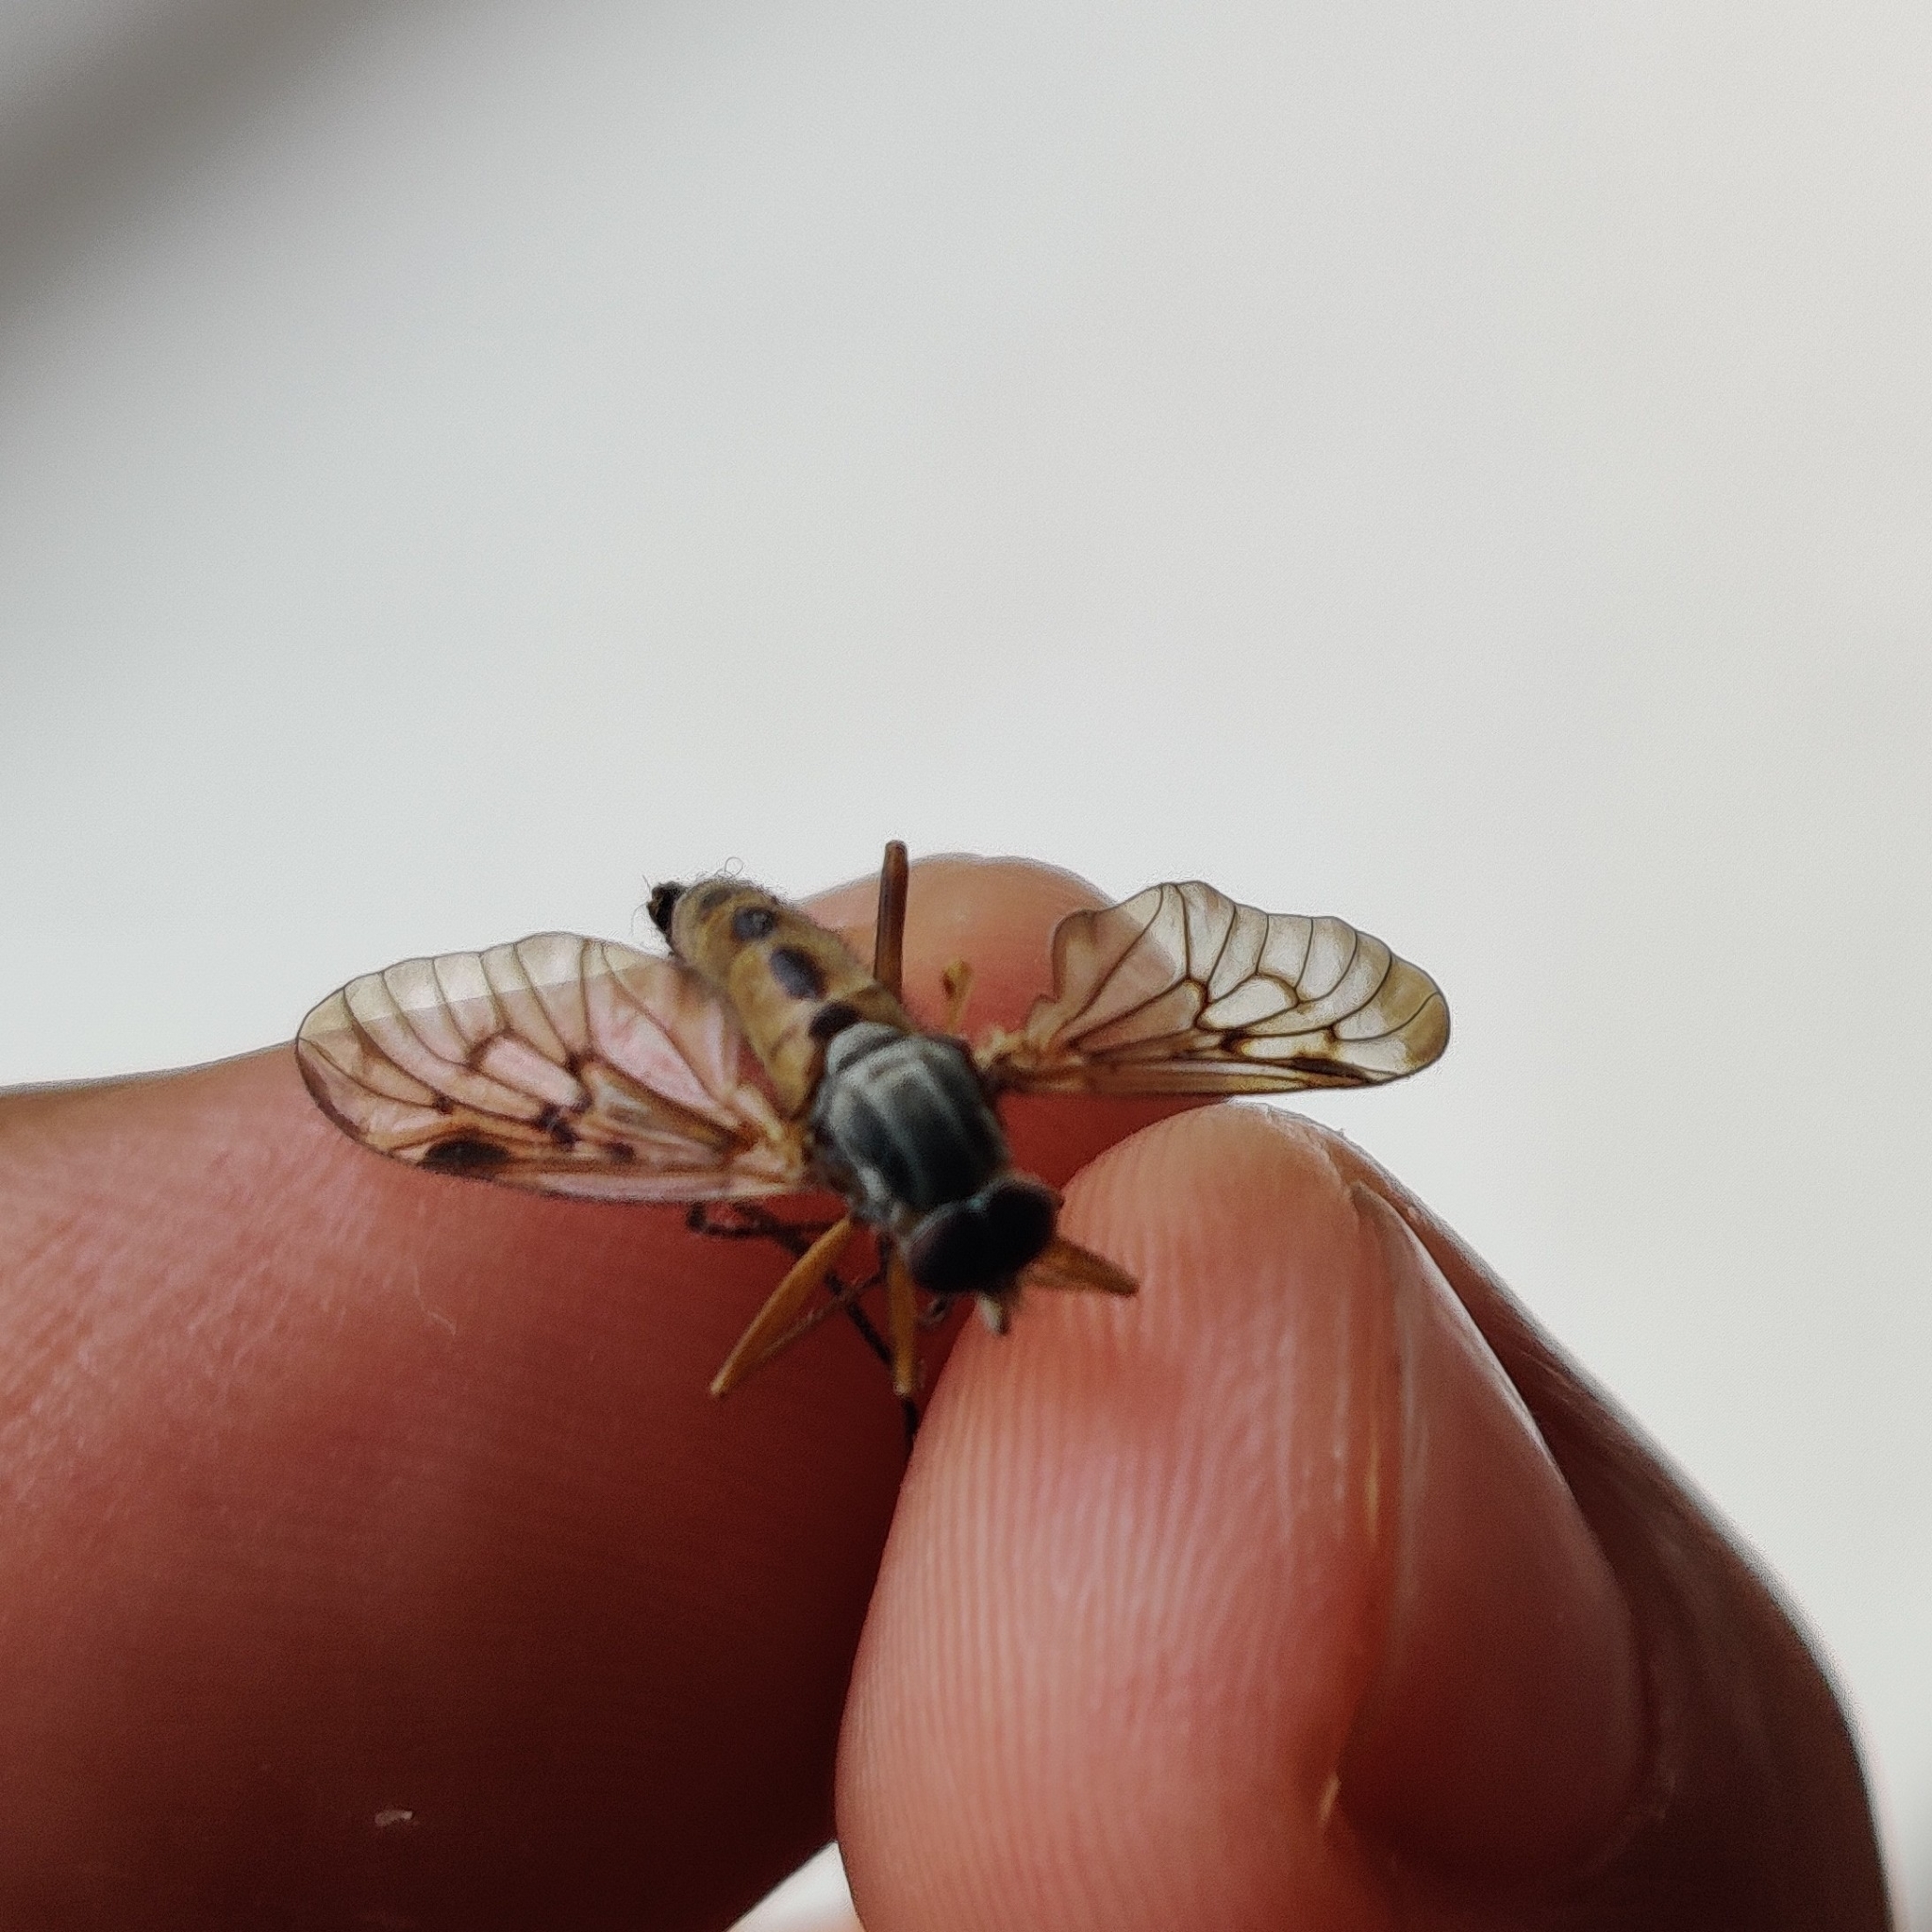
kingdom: Animalia
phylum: Arthropoda
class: Insecta
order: Diptera
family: Rhagionidae
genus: Rhagio
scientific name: Rhagio scolopacea
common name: Downlooker snipefly
